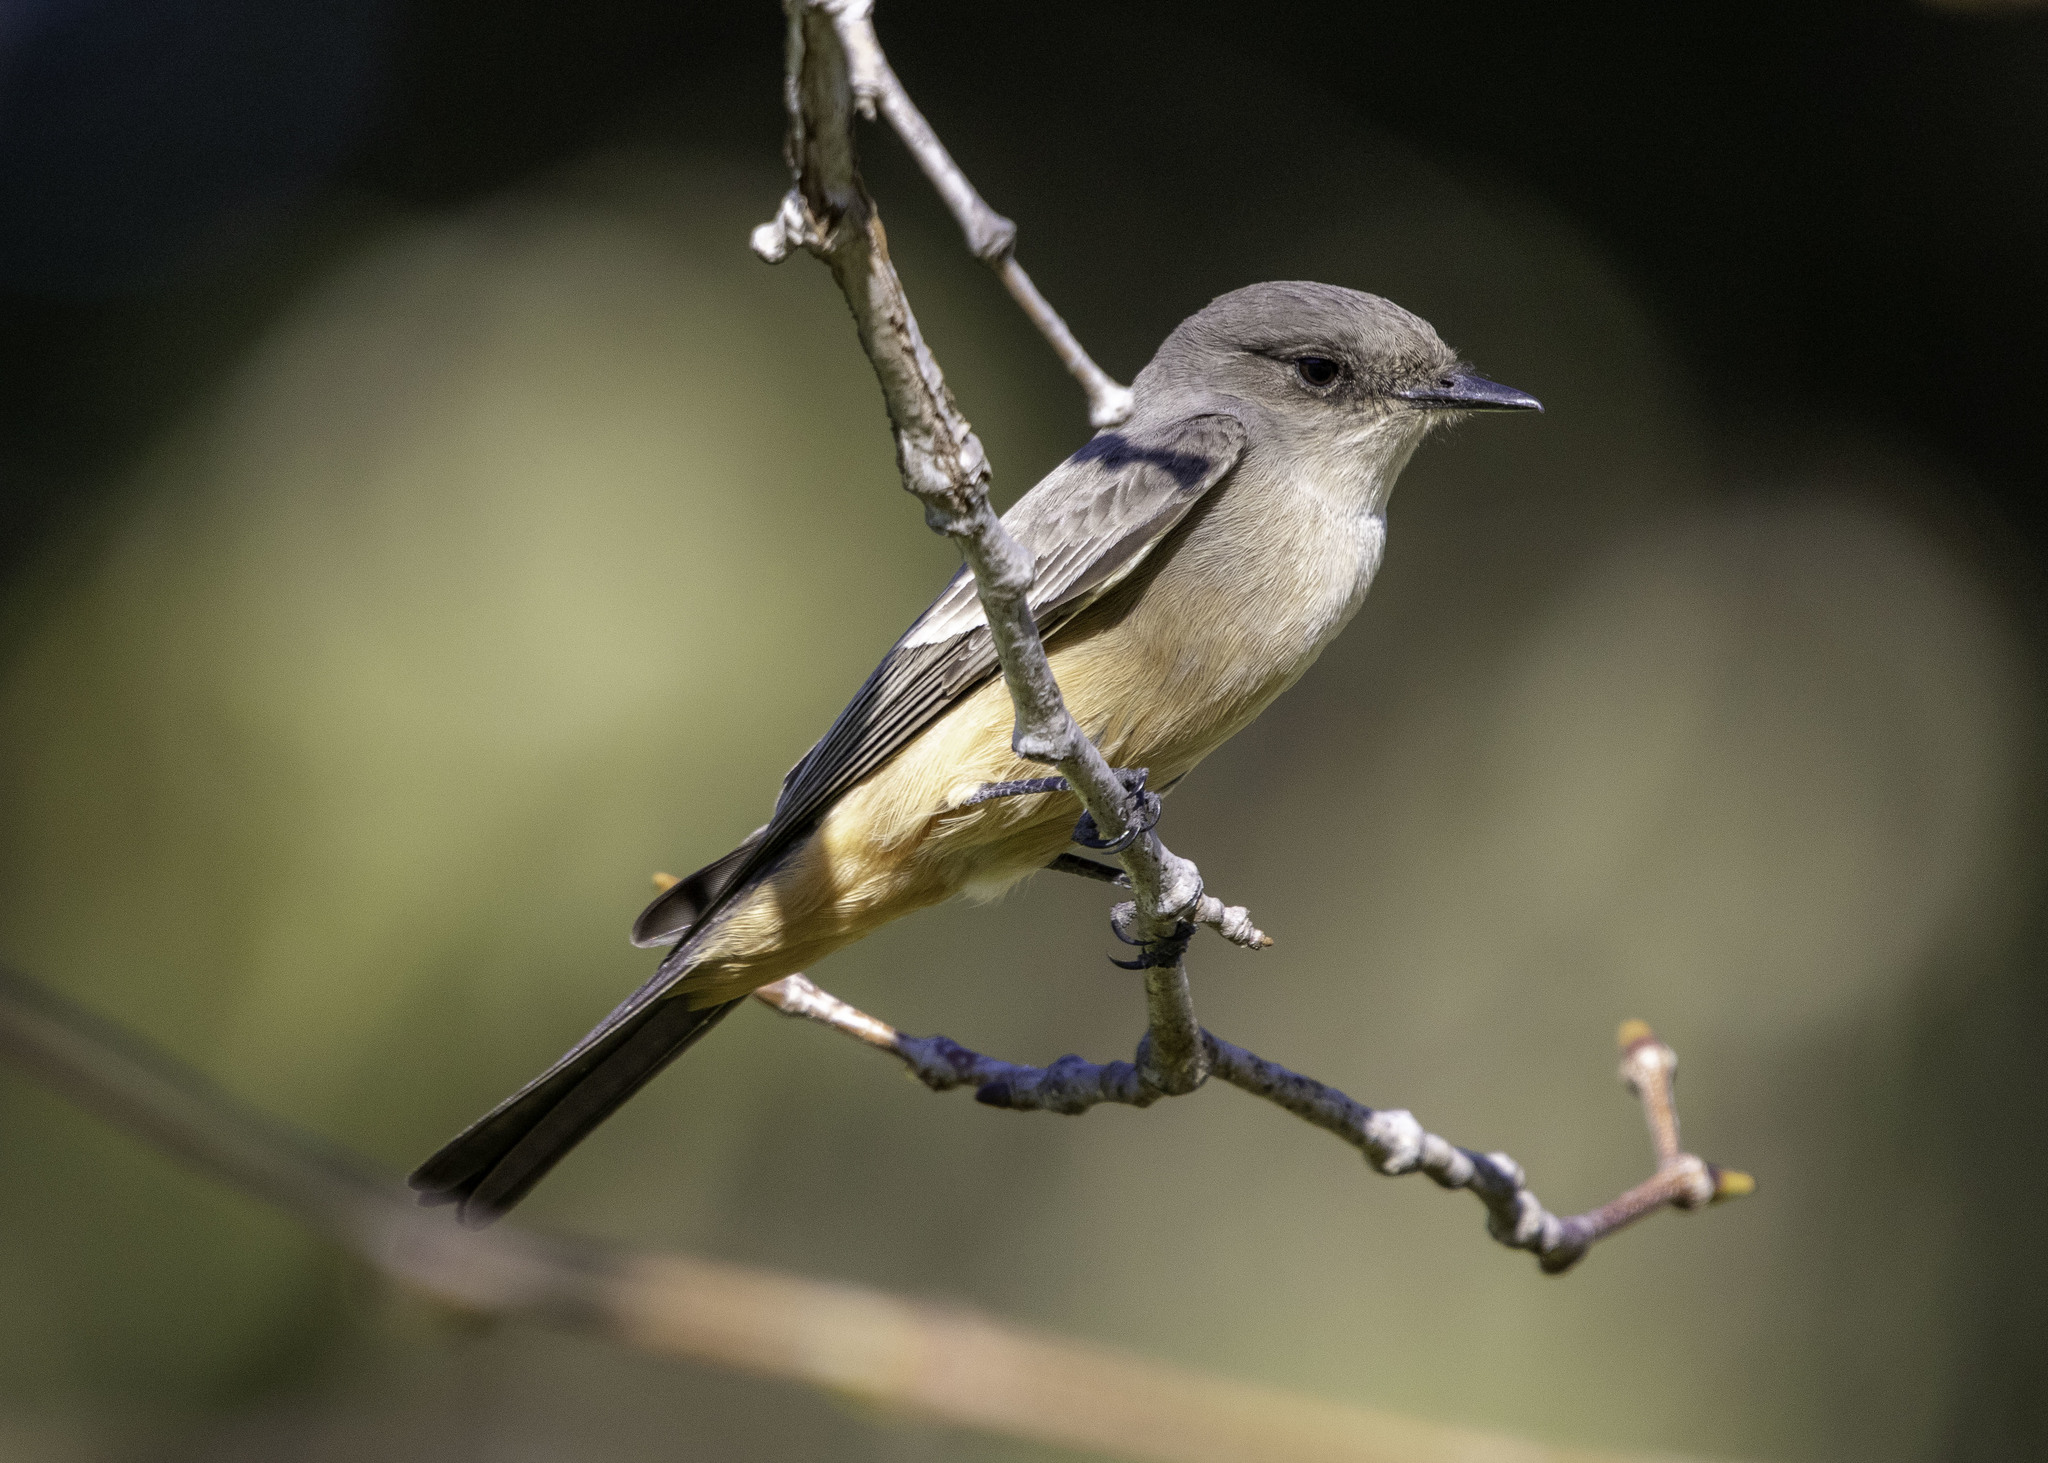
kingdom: Animalia
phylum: Chordata
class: Aves
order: Passeriformes
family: Tyrannidae
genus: Sayornis
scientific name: Sayornis saya
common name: Say's phoebe
